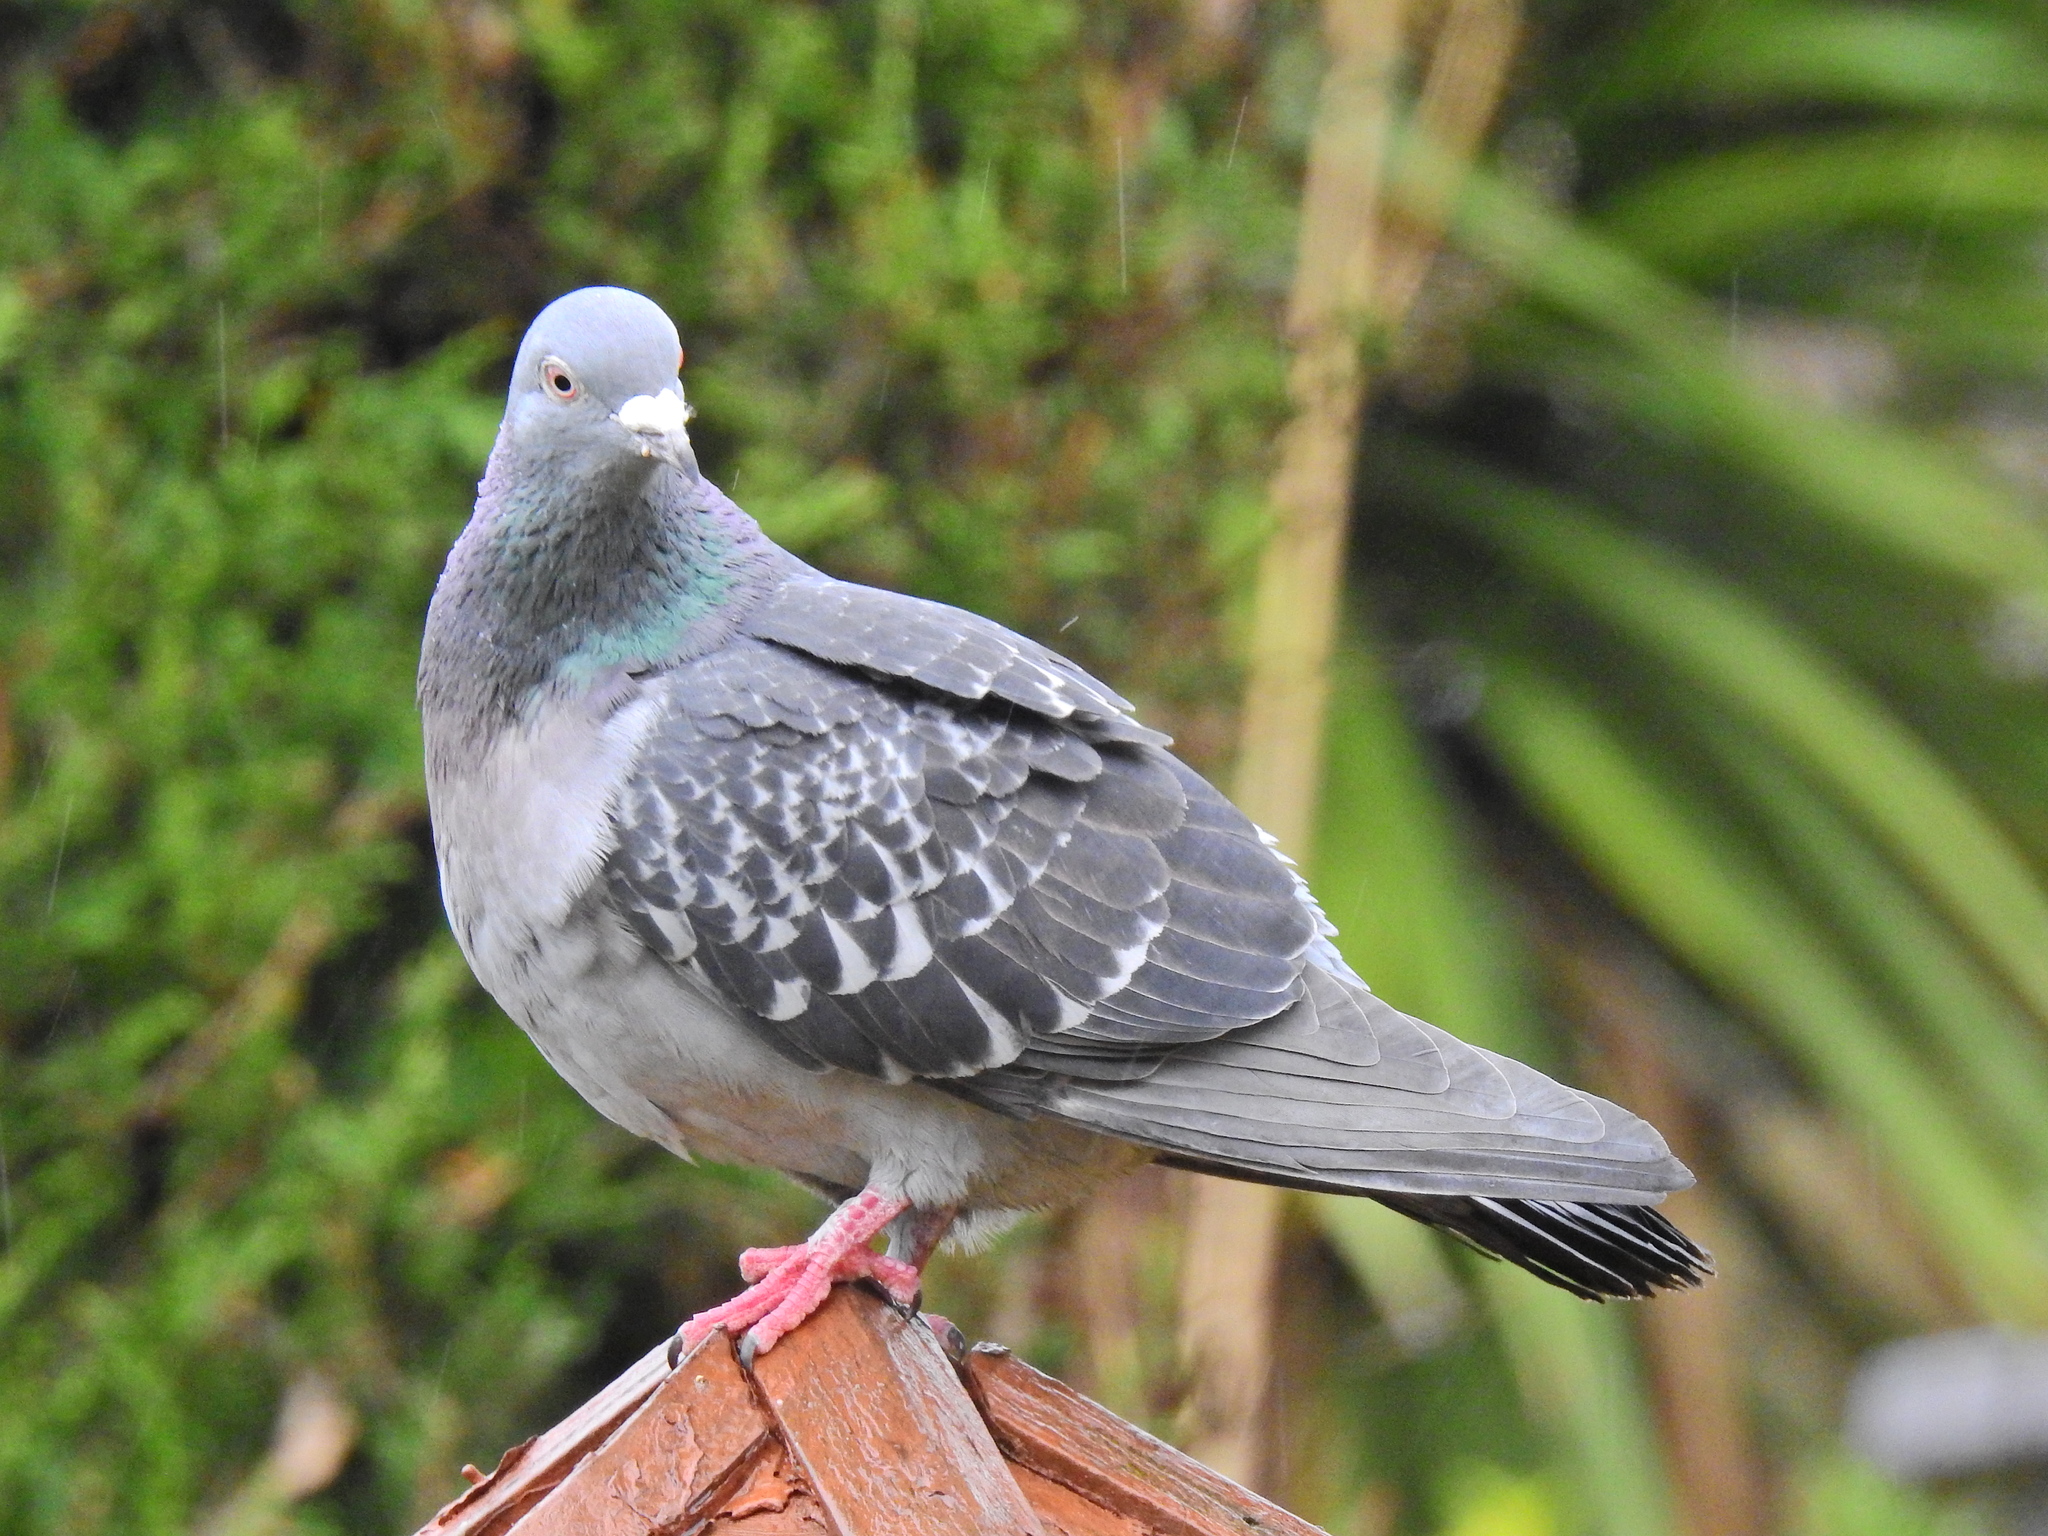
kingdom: Animalia
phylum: Chordata
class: Aves
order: Columbiformes
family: Columbidae
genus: Columba
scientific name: Columba livia
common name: Rock pigeon
